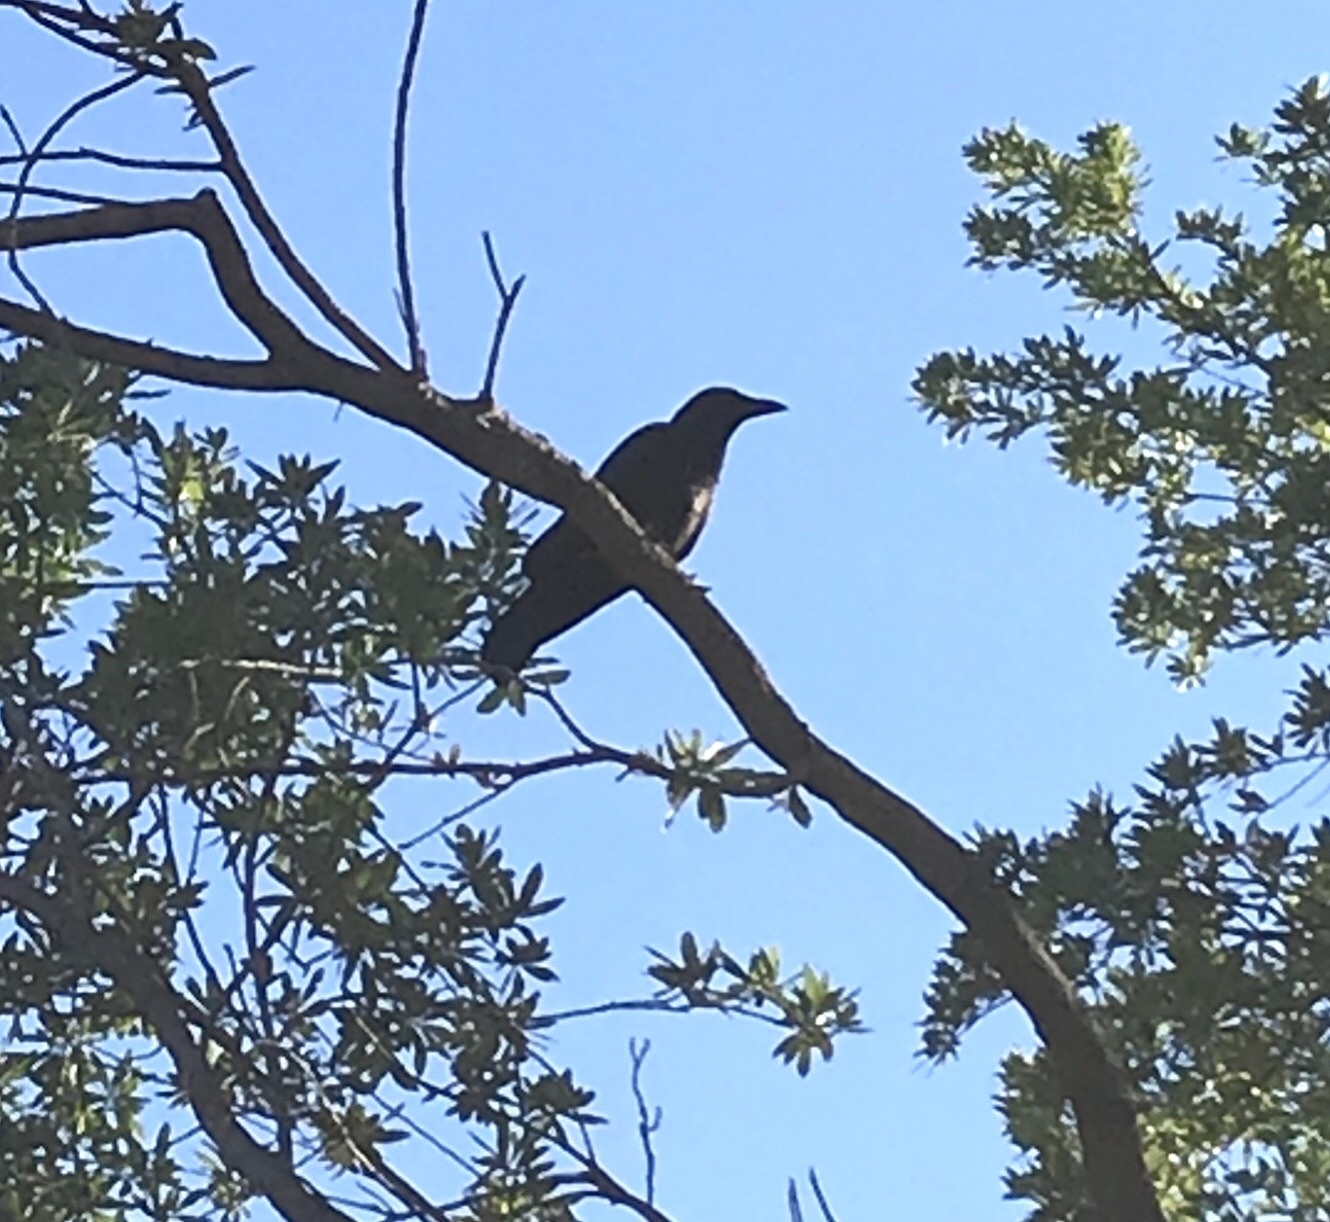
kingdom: Animalia
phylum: Chordata
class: Aves
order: Passeriformes
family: Corvidae
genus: Corvus
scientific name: Corvus brachyrhynchos
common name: American crow
